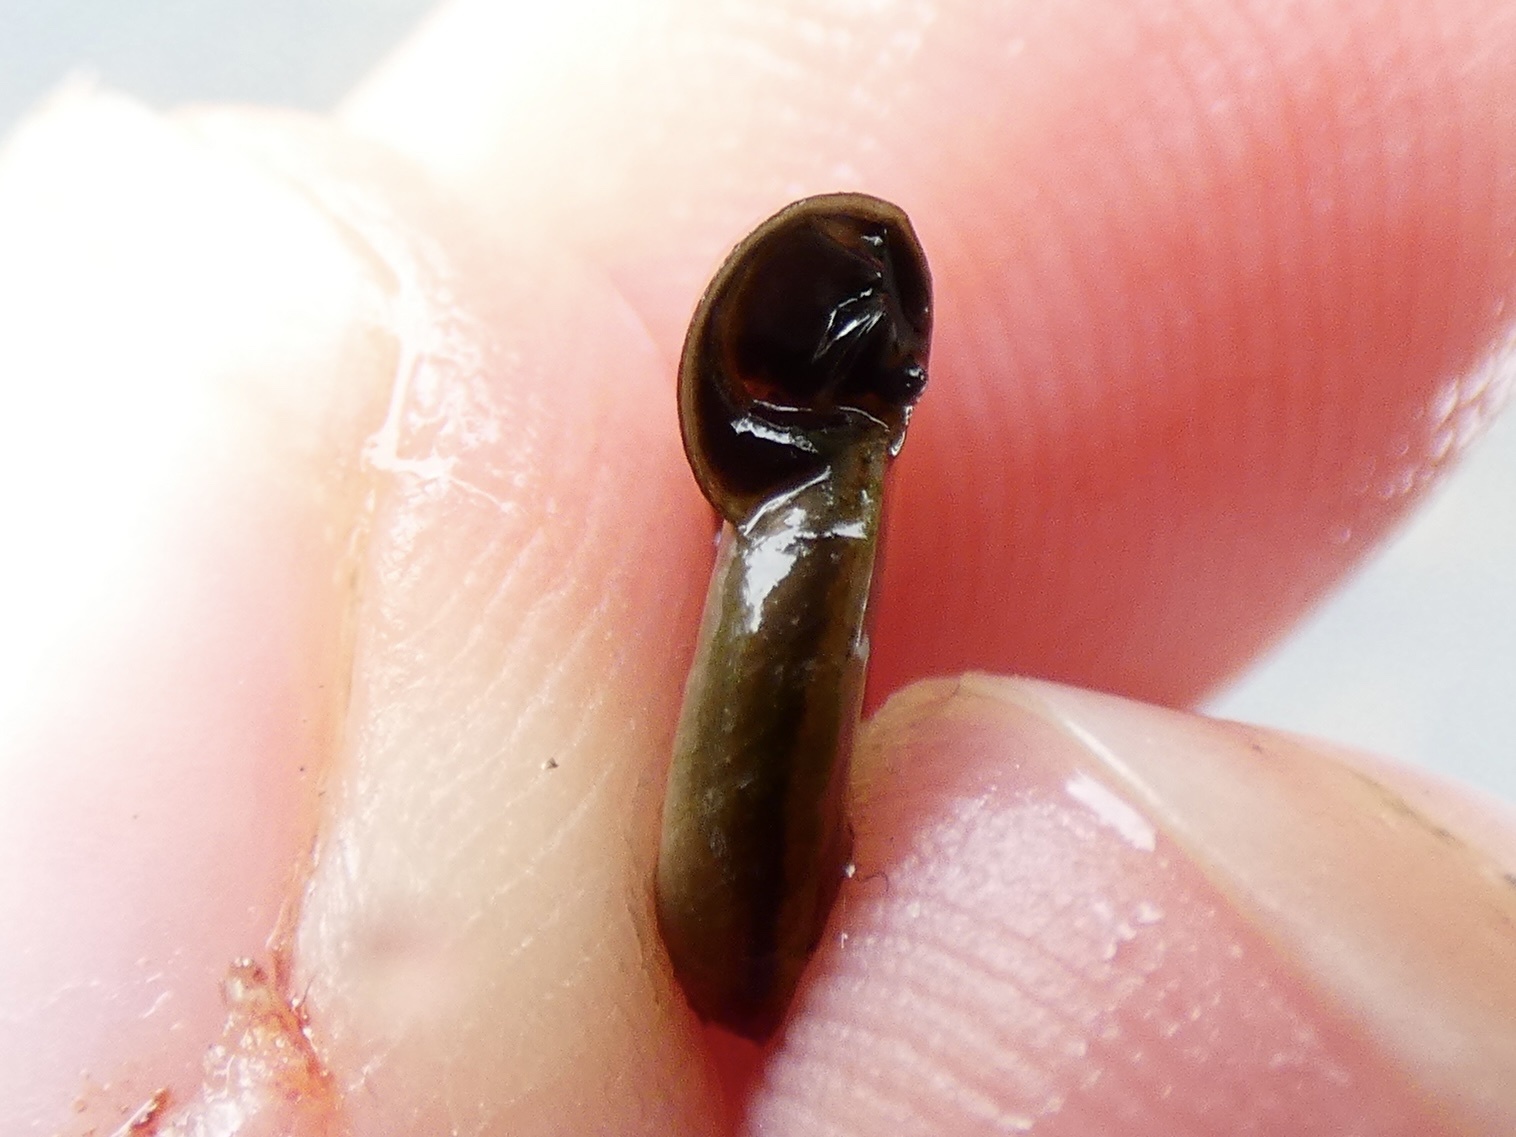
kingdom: Animalia
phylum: Mollusca
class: Gastropoda
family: Planorbidae
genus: Planorbis
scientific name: Planorbis planorbis
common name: Margined ramshorn
